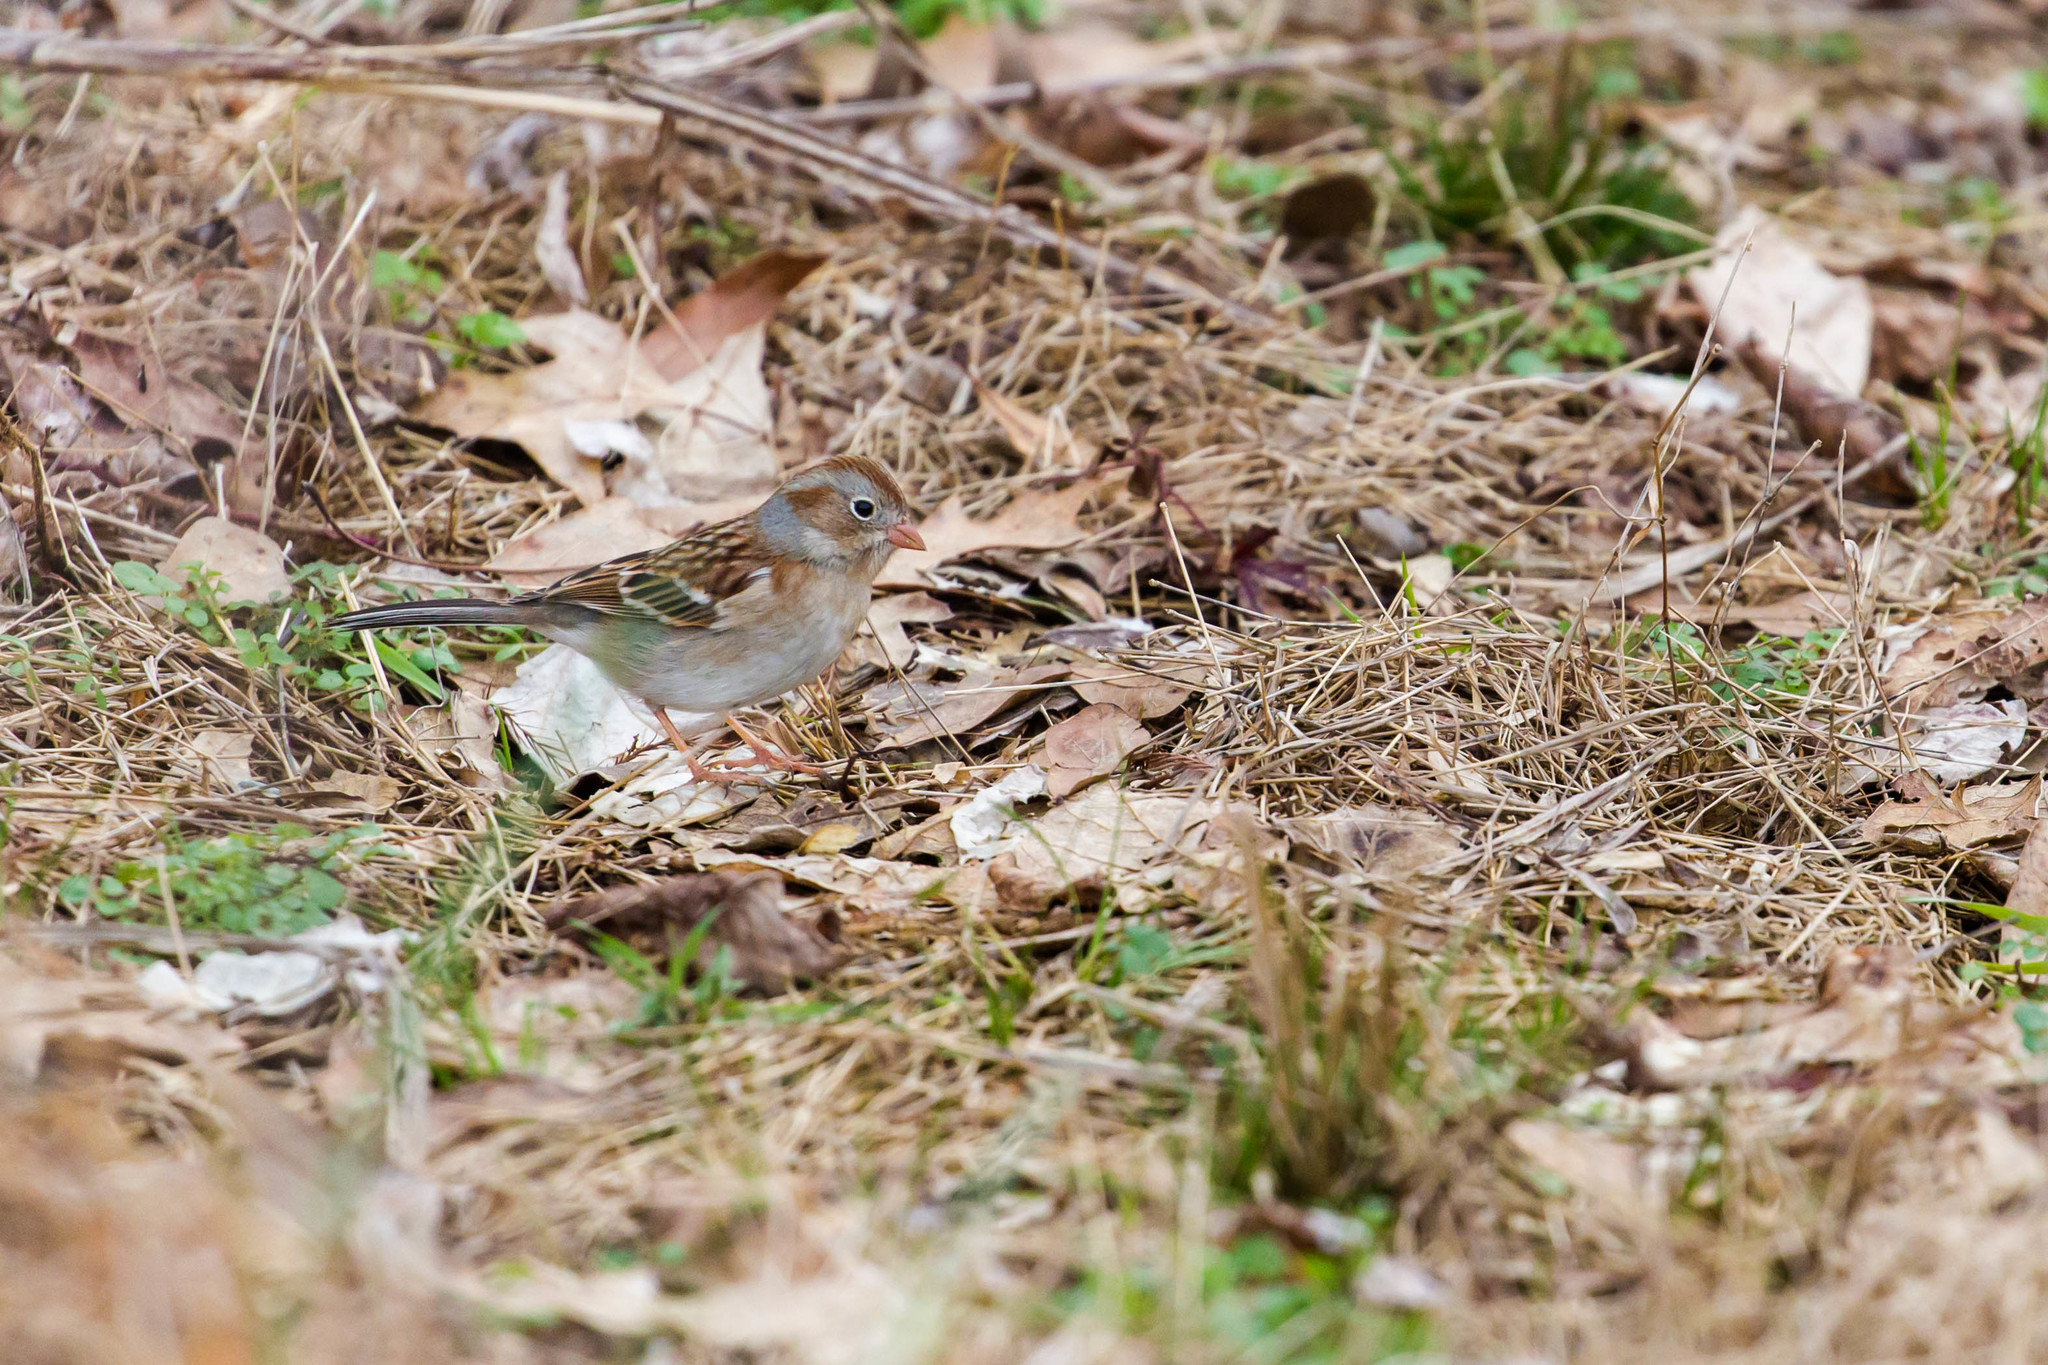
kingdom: Animalia
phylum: Chordata
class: Aves
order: Passeriformes
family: Passerellidae
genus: Spizella
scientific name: Spizella pusilla
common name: Field sparrow
